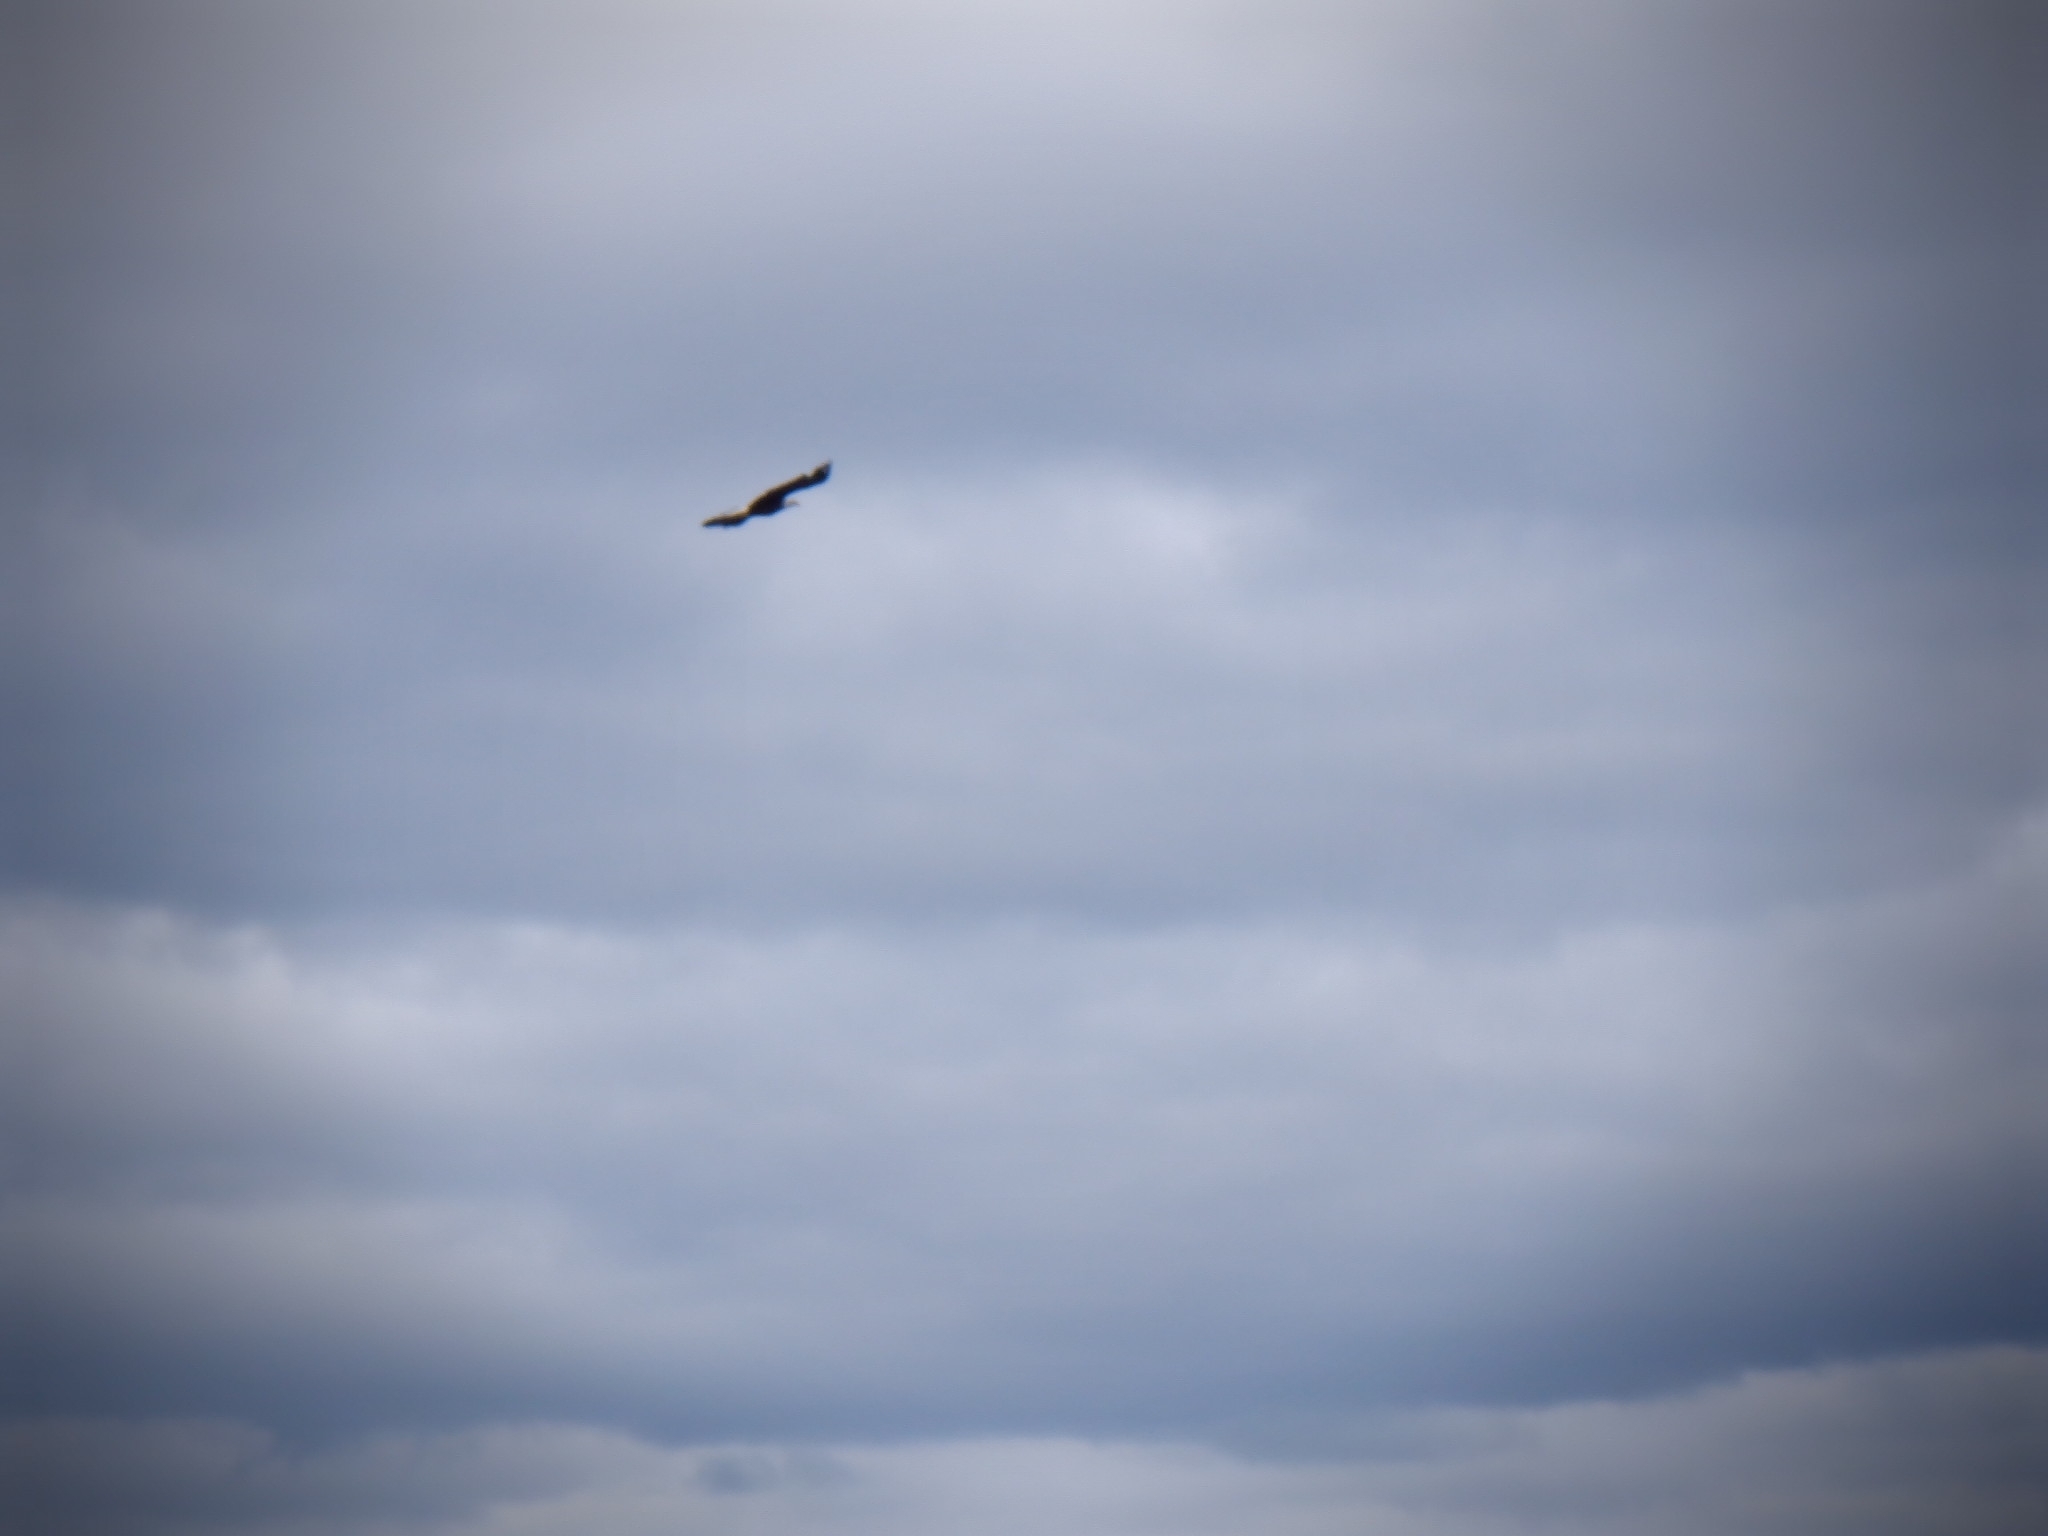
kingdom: Animalia
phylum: Chordata
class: Aves
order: Accipitriformes
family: Accipitridae
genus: Haliaeetus
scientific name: Haliaeetus leucocephalus
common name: Bald eagle
